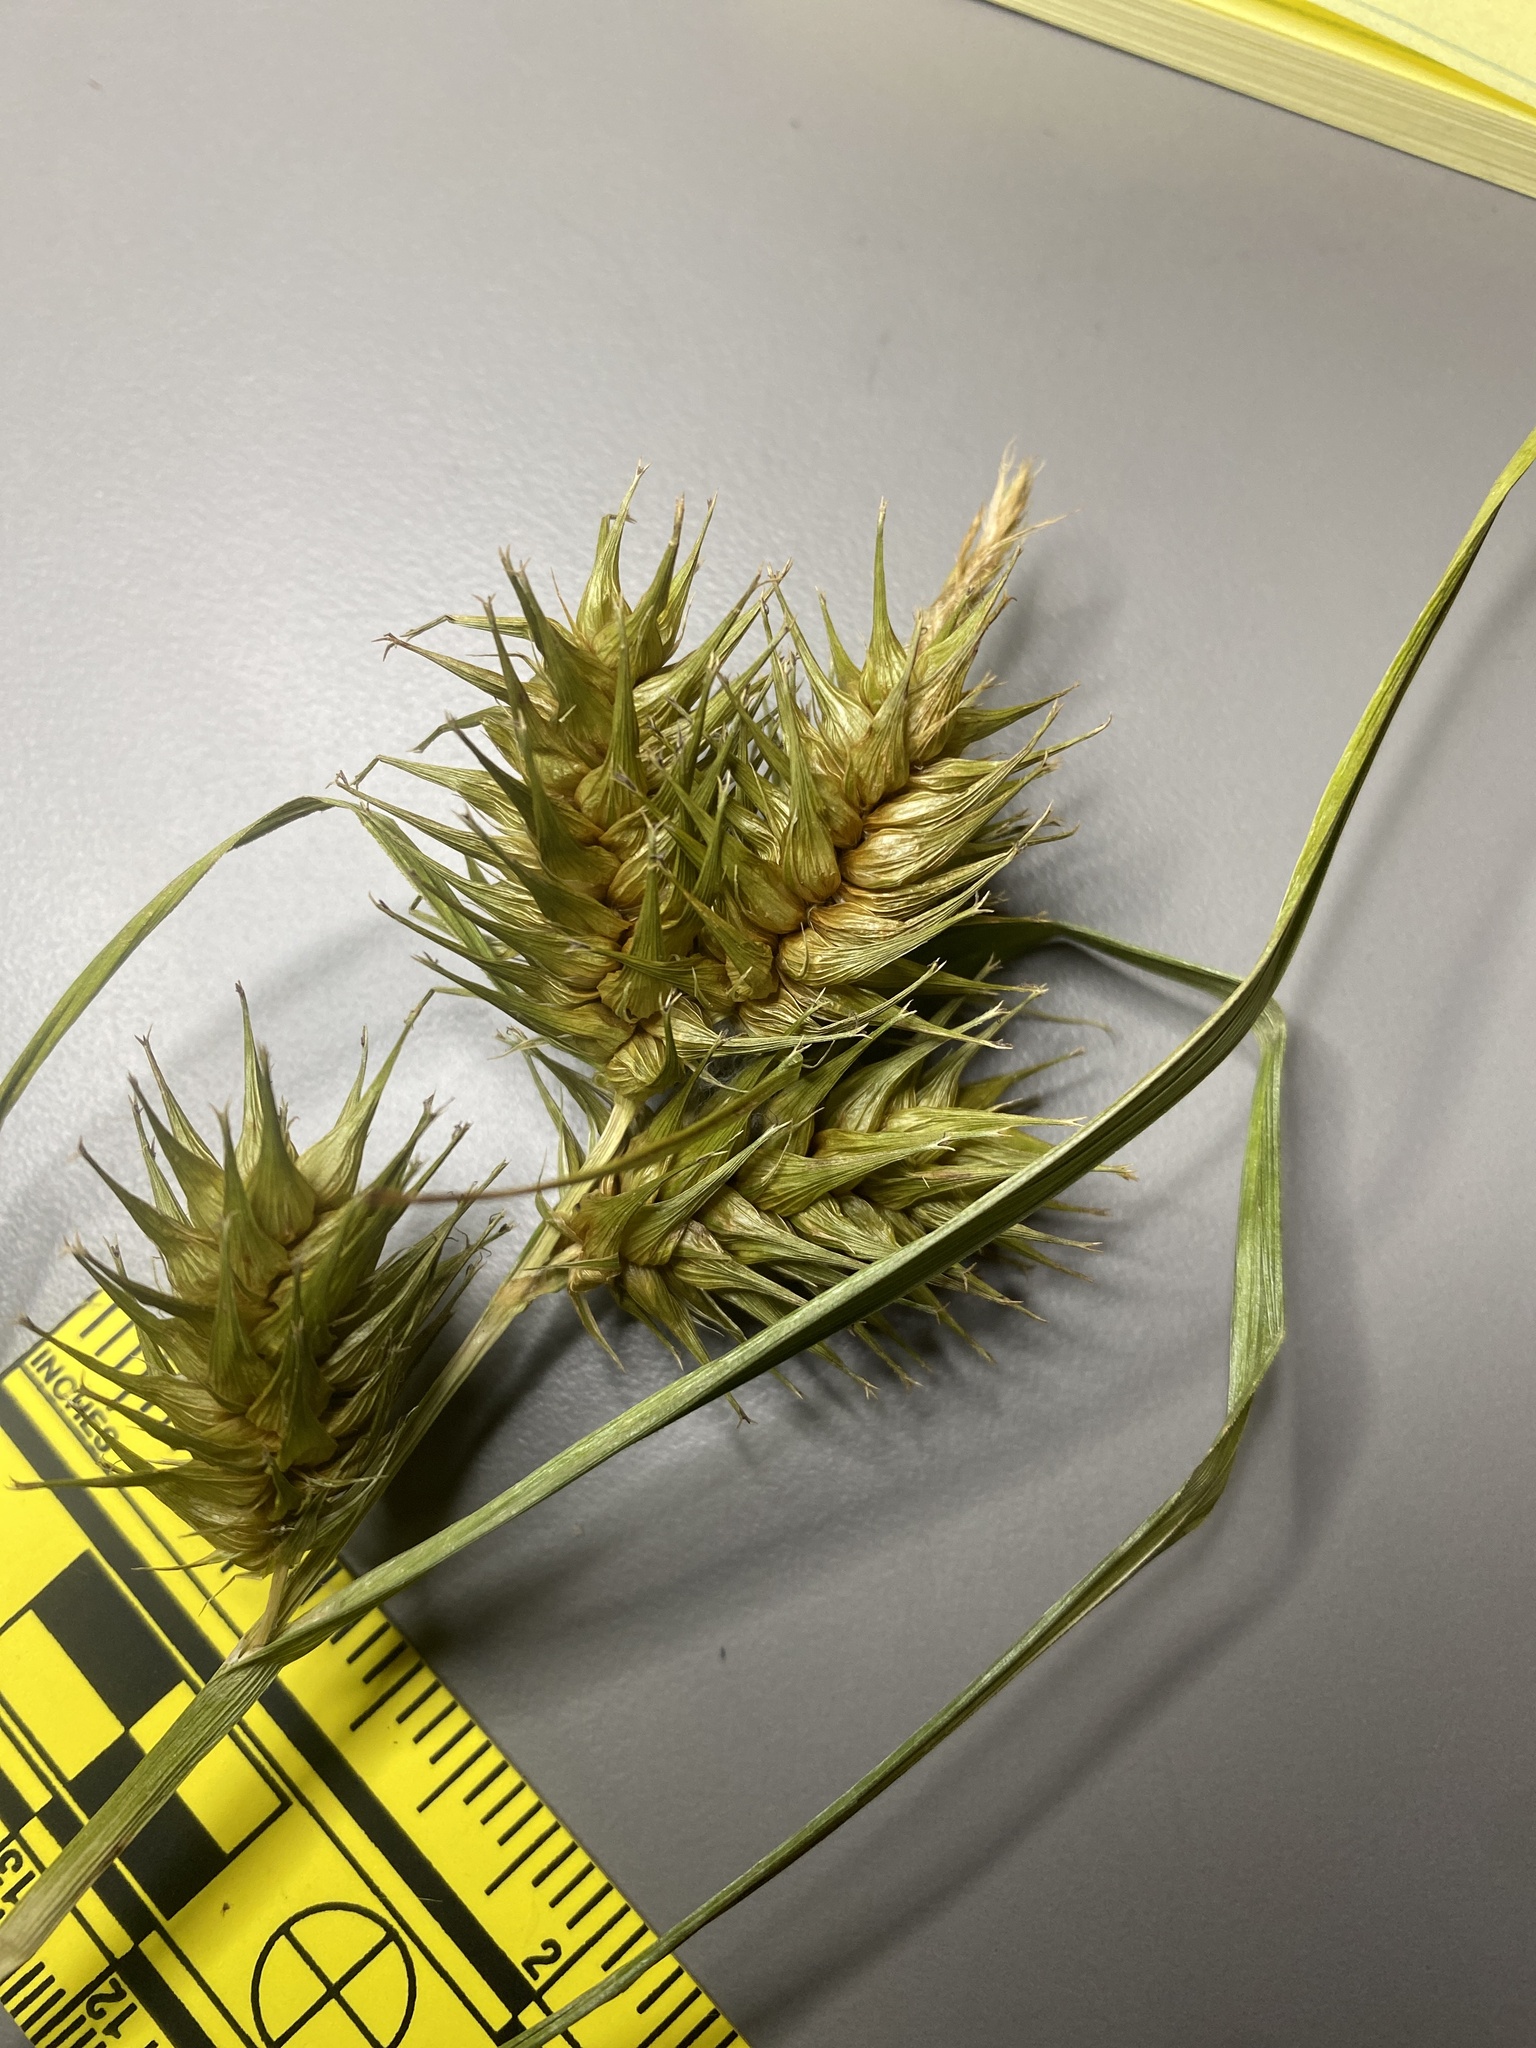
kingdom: Plantae
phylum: Tracheophyta
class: Liliopsida
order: Poales
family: Cyperaceae
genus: Carex
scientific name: Carex lupulina
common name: Hop sedge
